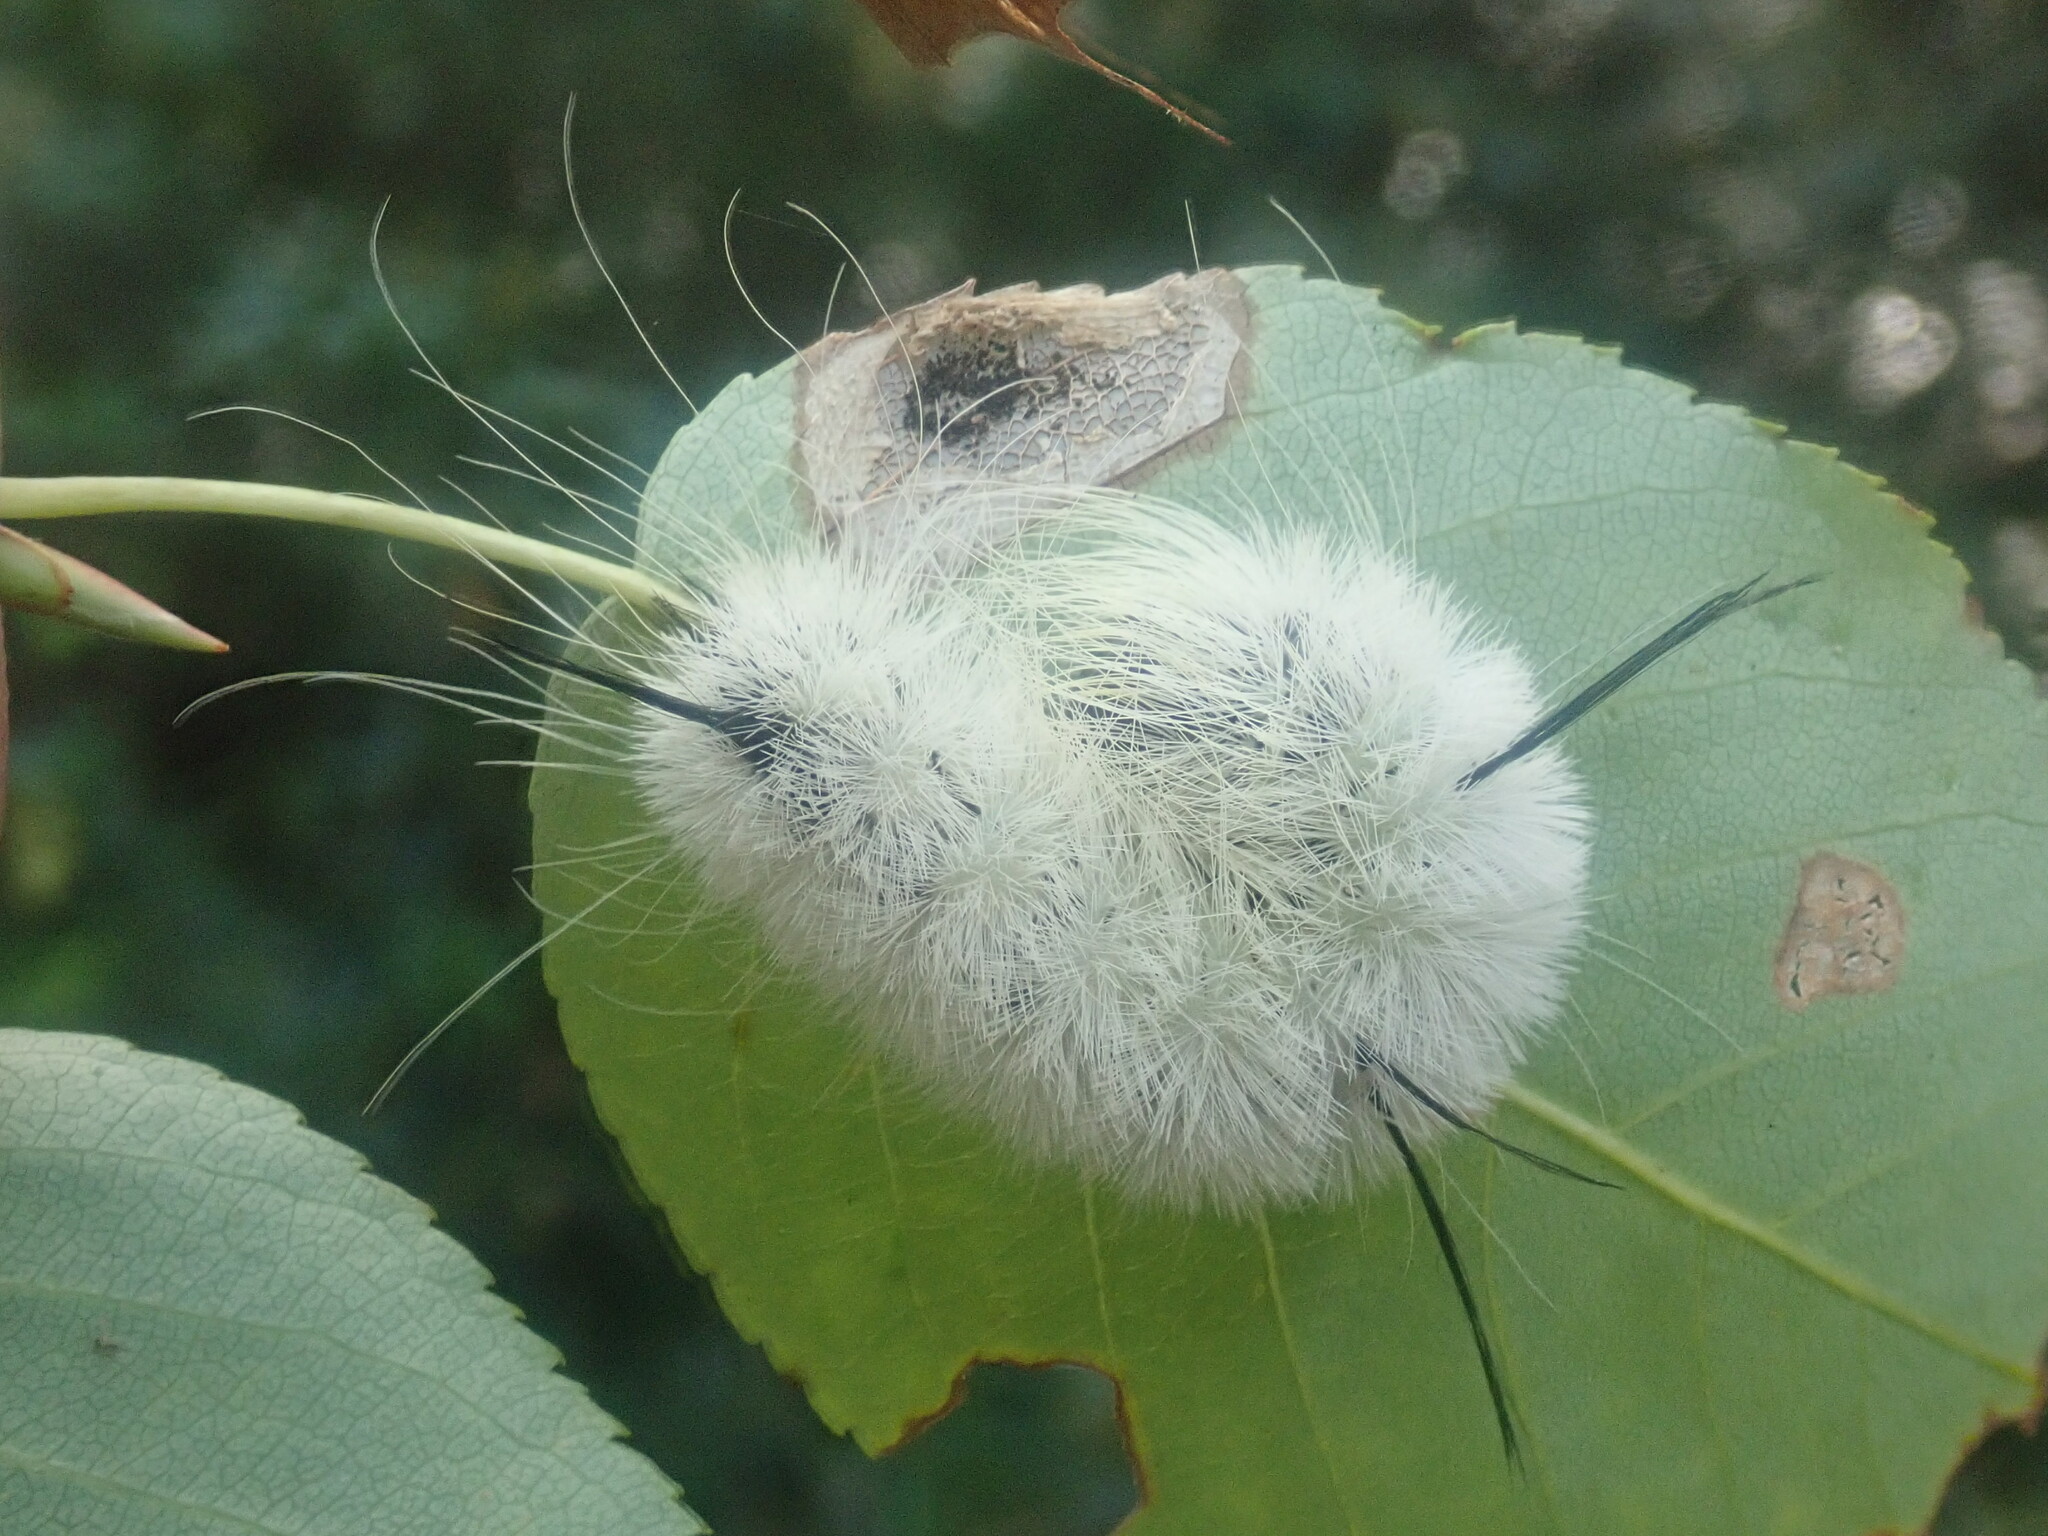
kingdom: Animalia
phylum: Arthropoda
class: Insecta
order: Lepidoptera
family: Noctuidae
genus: Acronicta
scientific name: Acronicta americana
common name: American dagger
